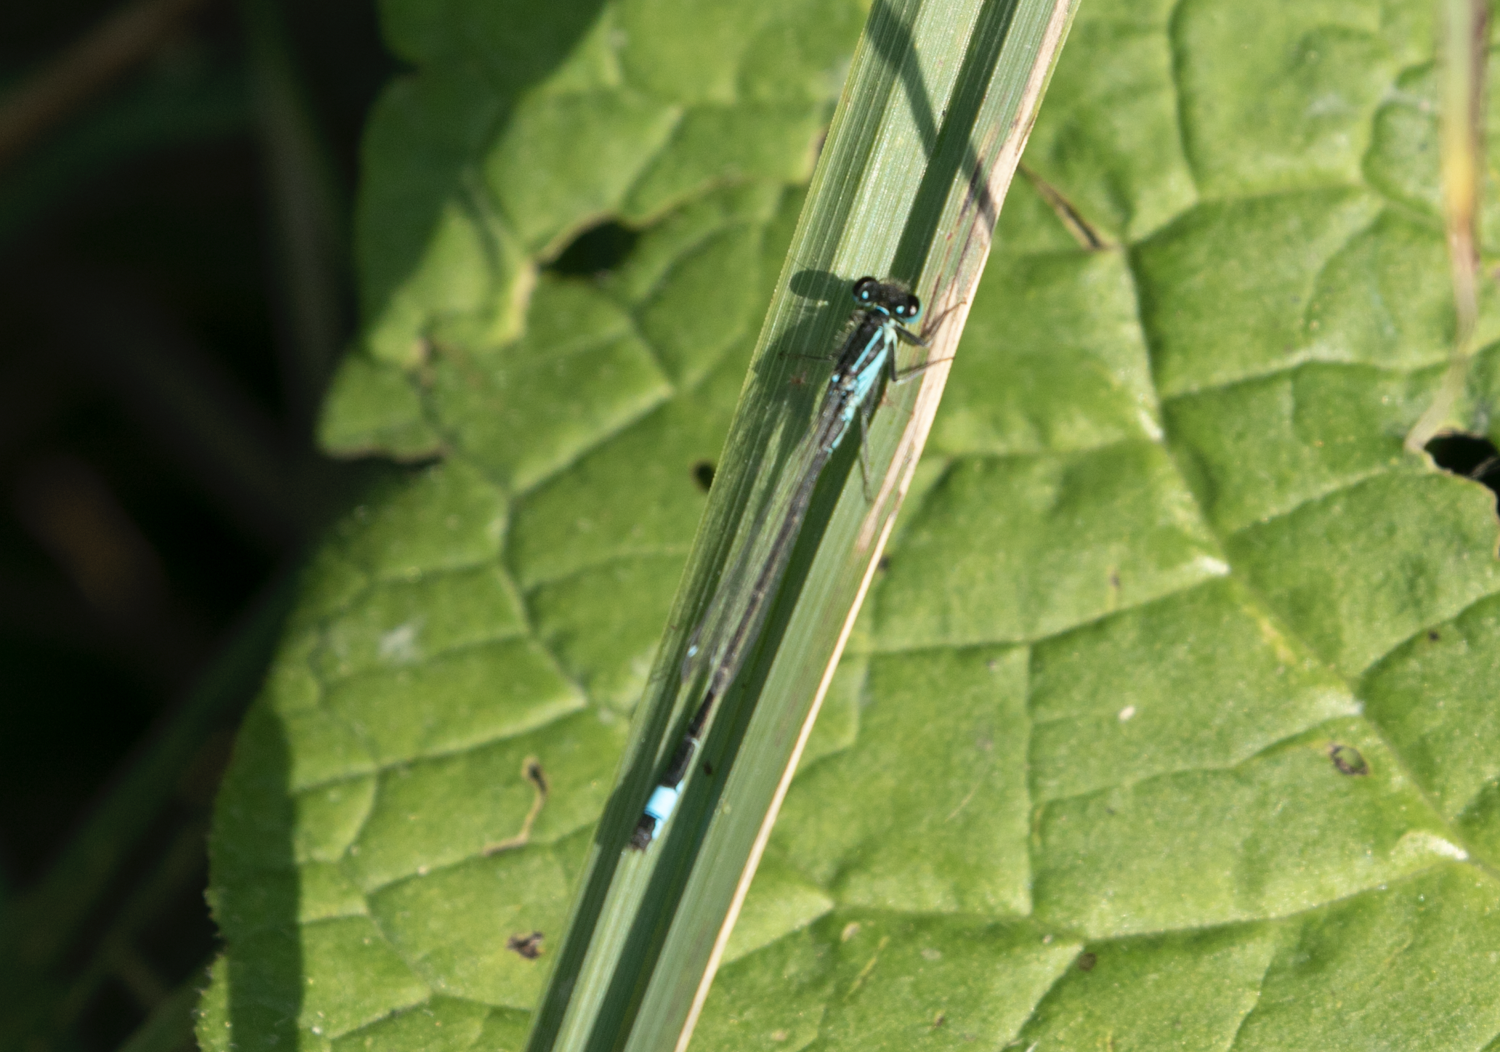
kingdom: Animalia
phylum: Arthropoda
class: Insecta
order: Odonata
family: Coenagrionidae
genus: Ischnura
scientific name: Ischnura elegans
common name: Blue-tailed damselfly
